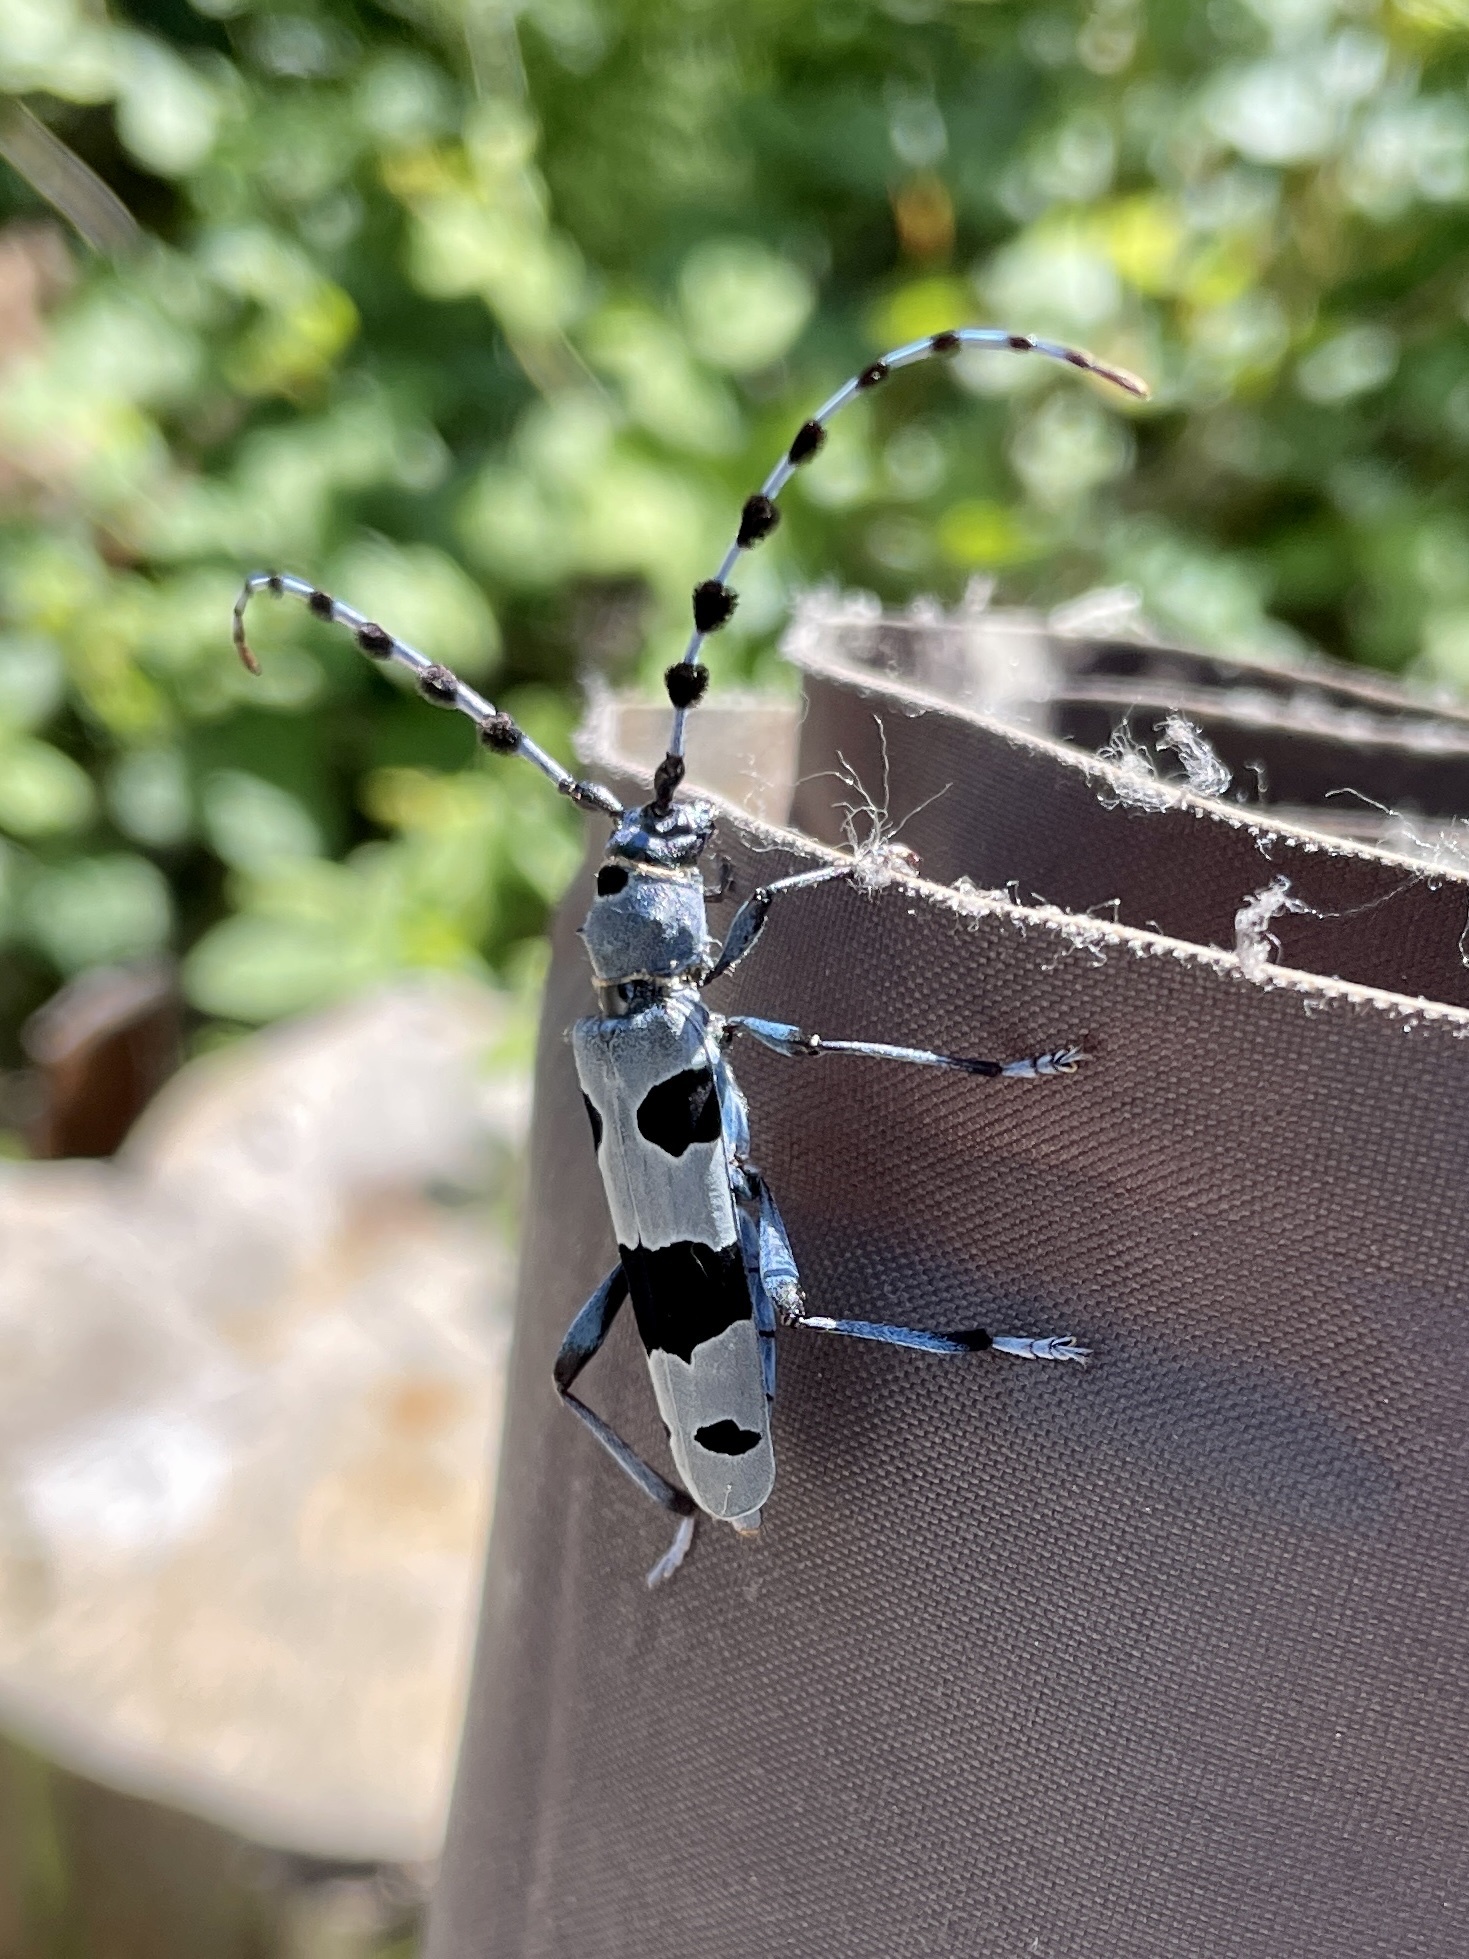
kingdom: Animalia
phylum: Arthropoda
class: Insecta
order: Coleoptera
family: Cerambycidae
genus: Rosalia
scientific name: Rosalia alpina
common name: Rosalia longicorn
